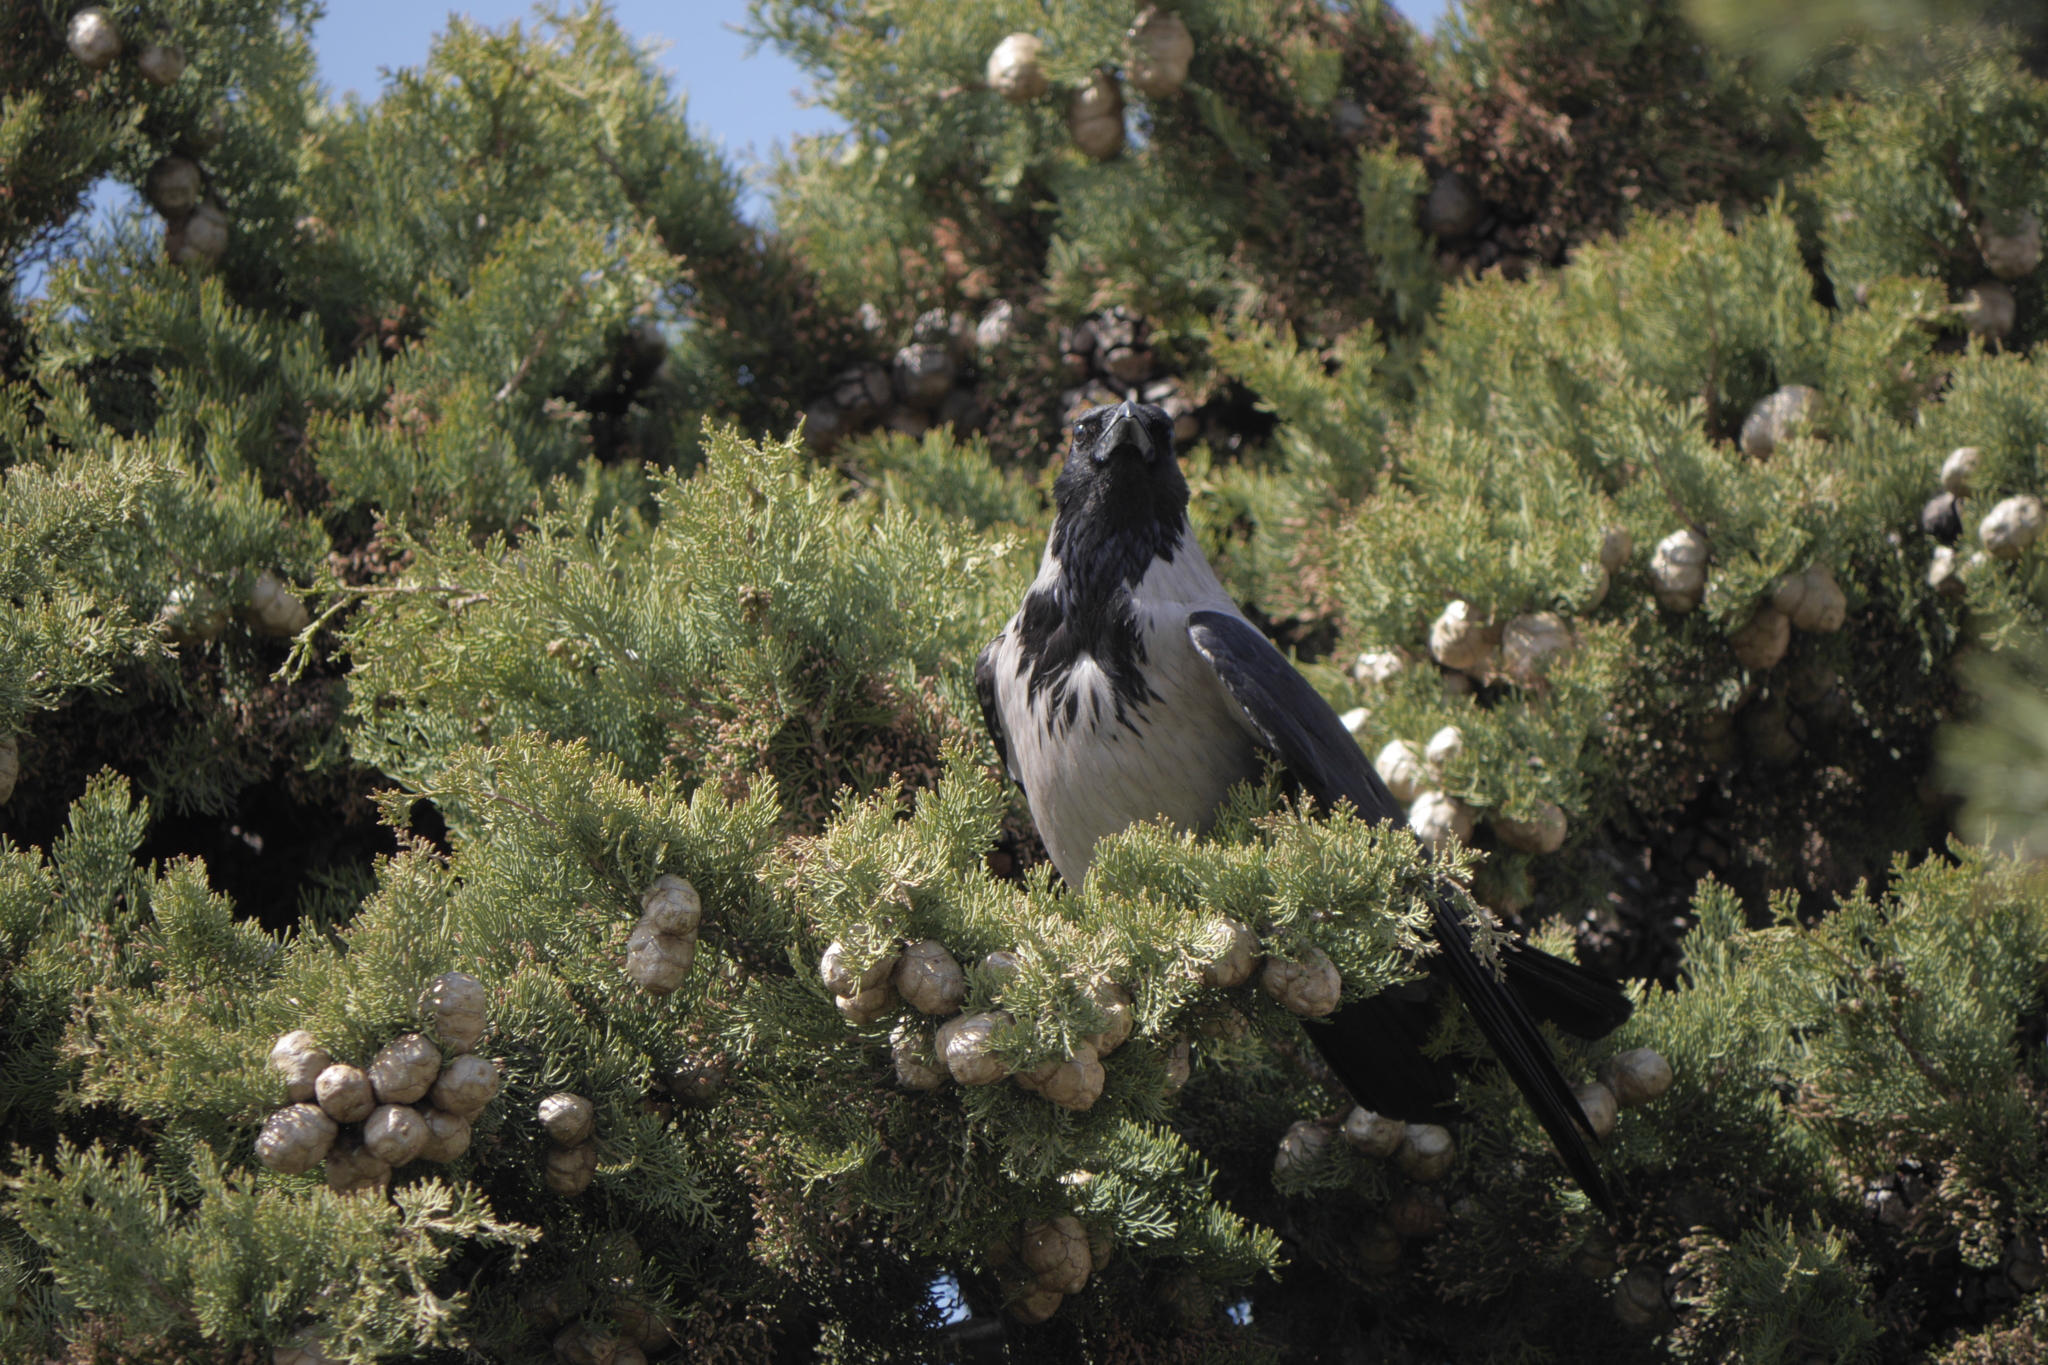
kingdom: Animalia
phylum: Chordata
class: Aves
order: Passeriformes
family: Corvidae
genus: Corvus
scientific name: Corvus cornix
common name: Hooded crow
